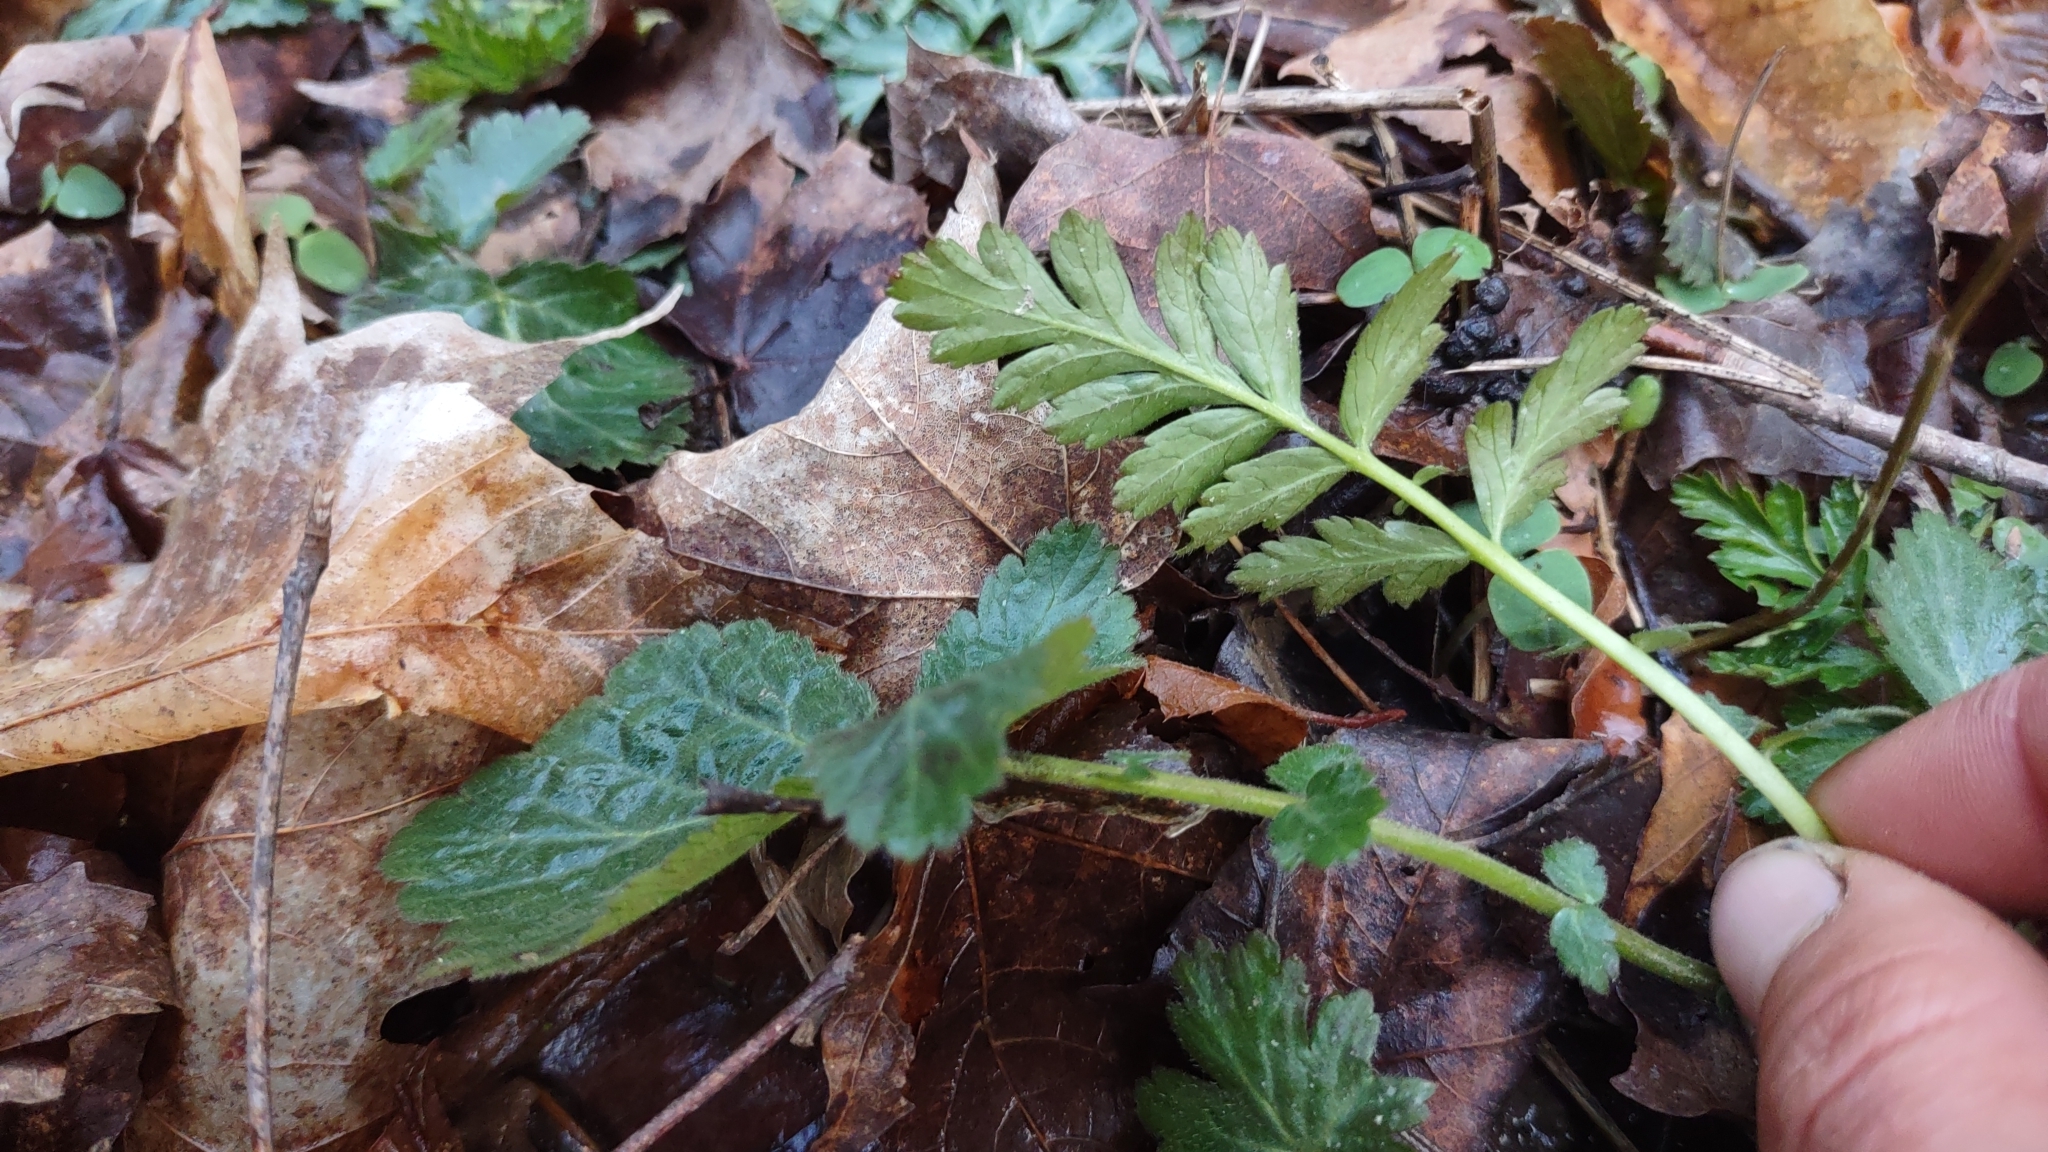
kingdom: Plantae
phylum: Tracheophyta
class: Magnoliopsida
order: Rosales
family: Rosaceae
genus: Geum
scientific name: Geum canadense
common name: White avens
